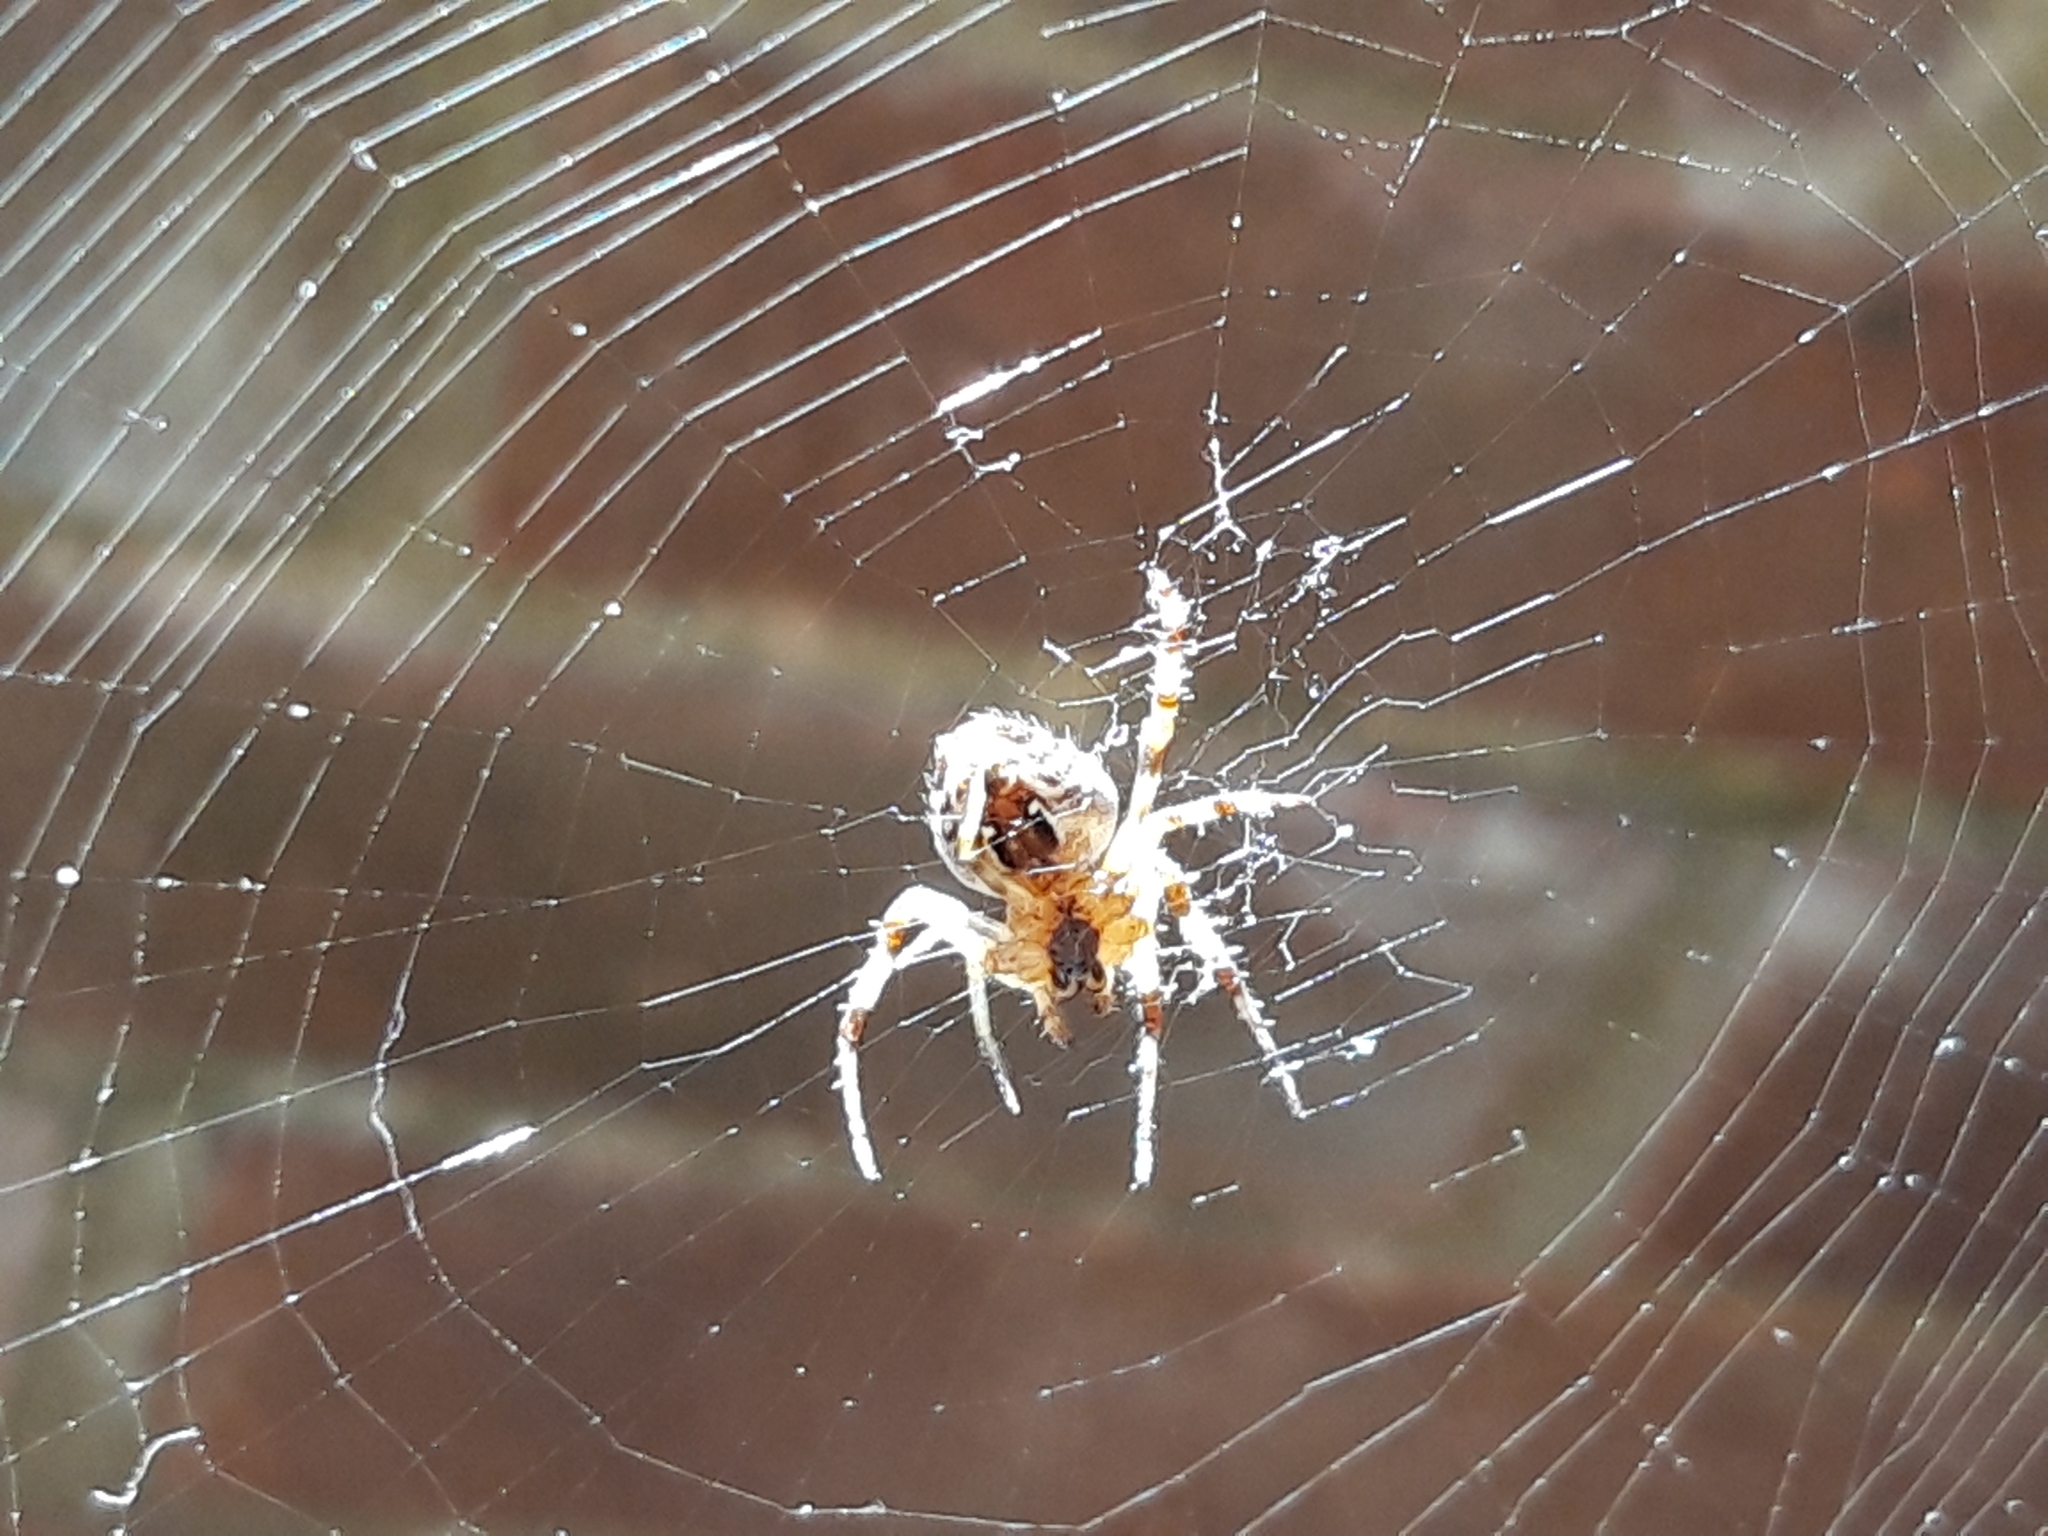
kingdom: Animalia
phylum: Arthropoda
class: Arachnida
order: Araneae
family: Araneidae
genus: Araneus
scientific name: Araneus diadematus
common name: Cross orbweaver
